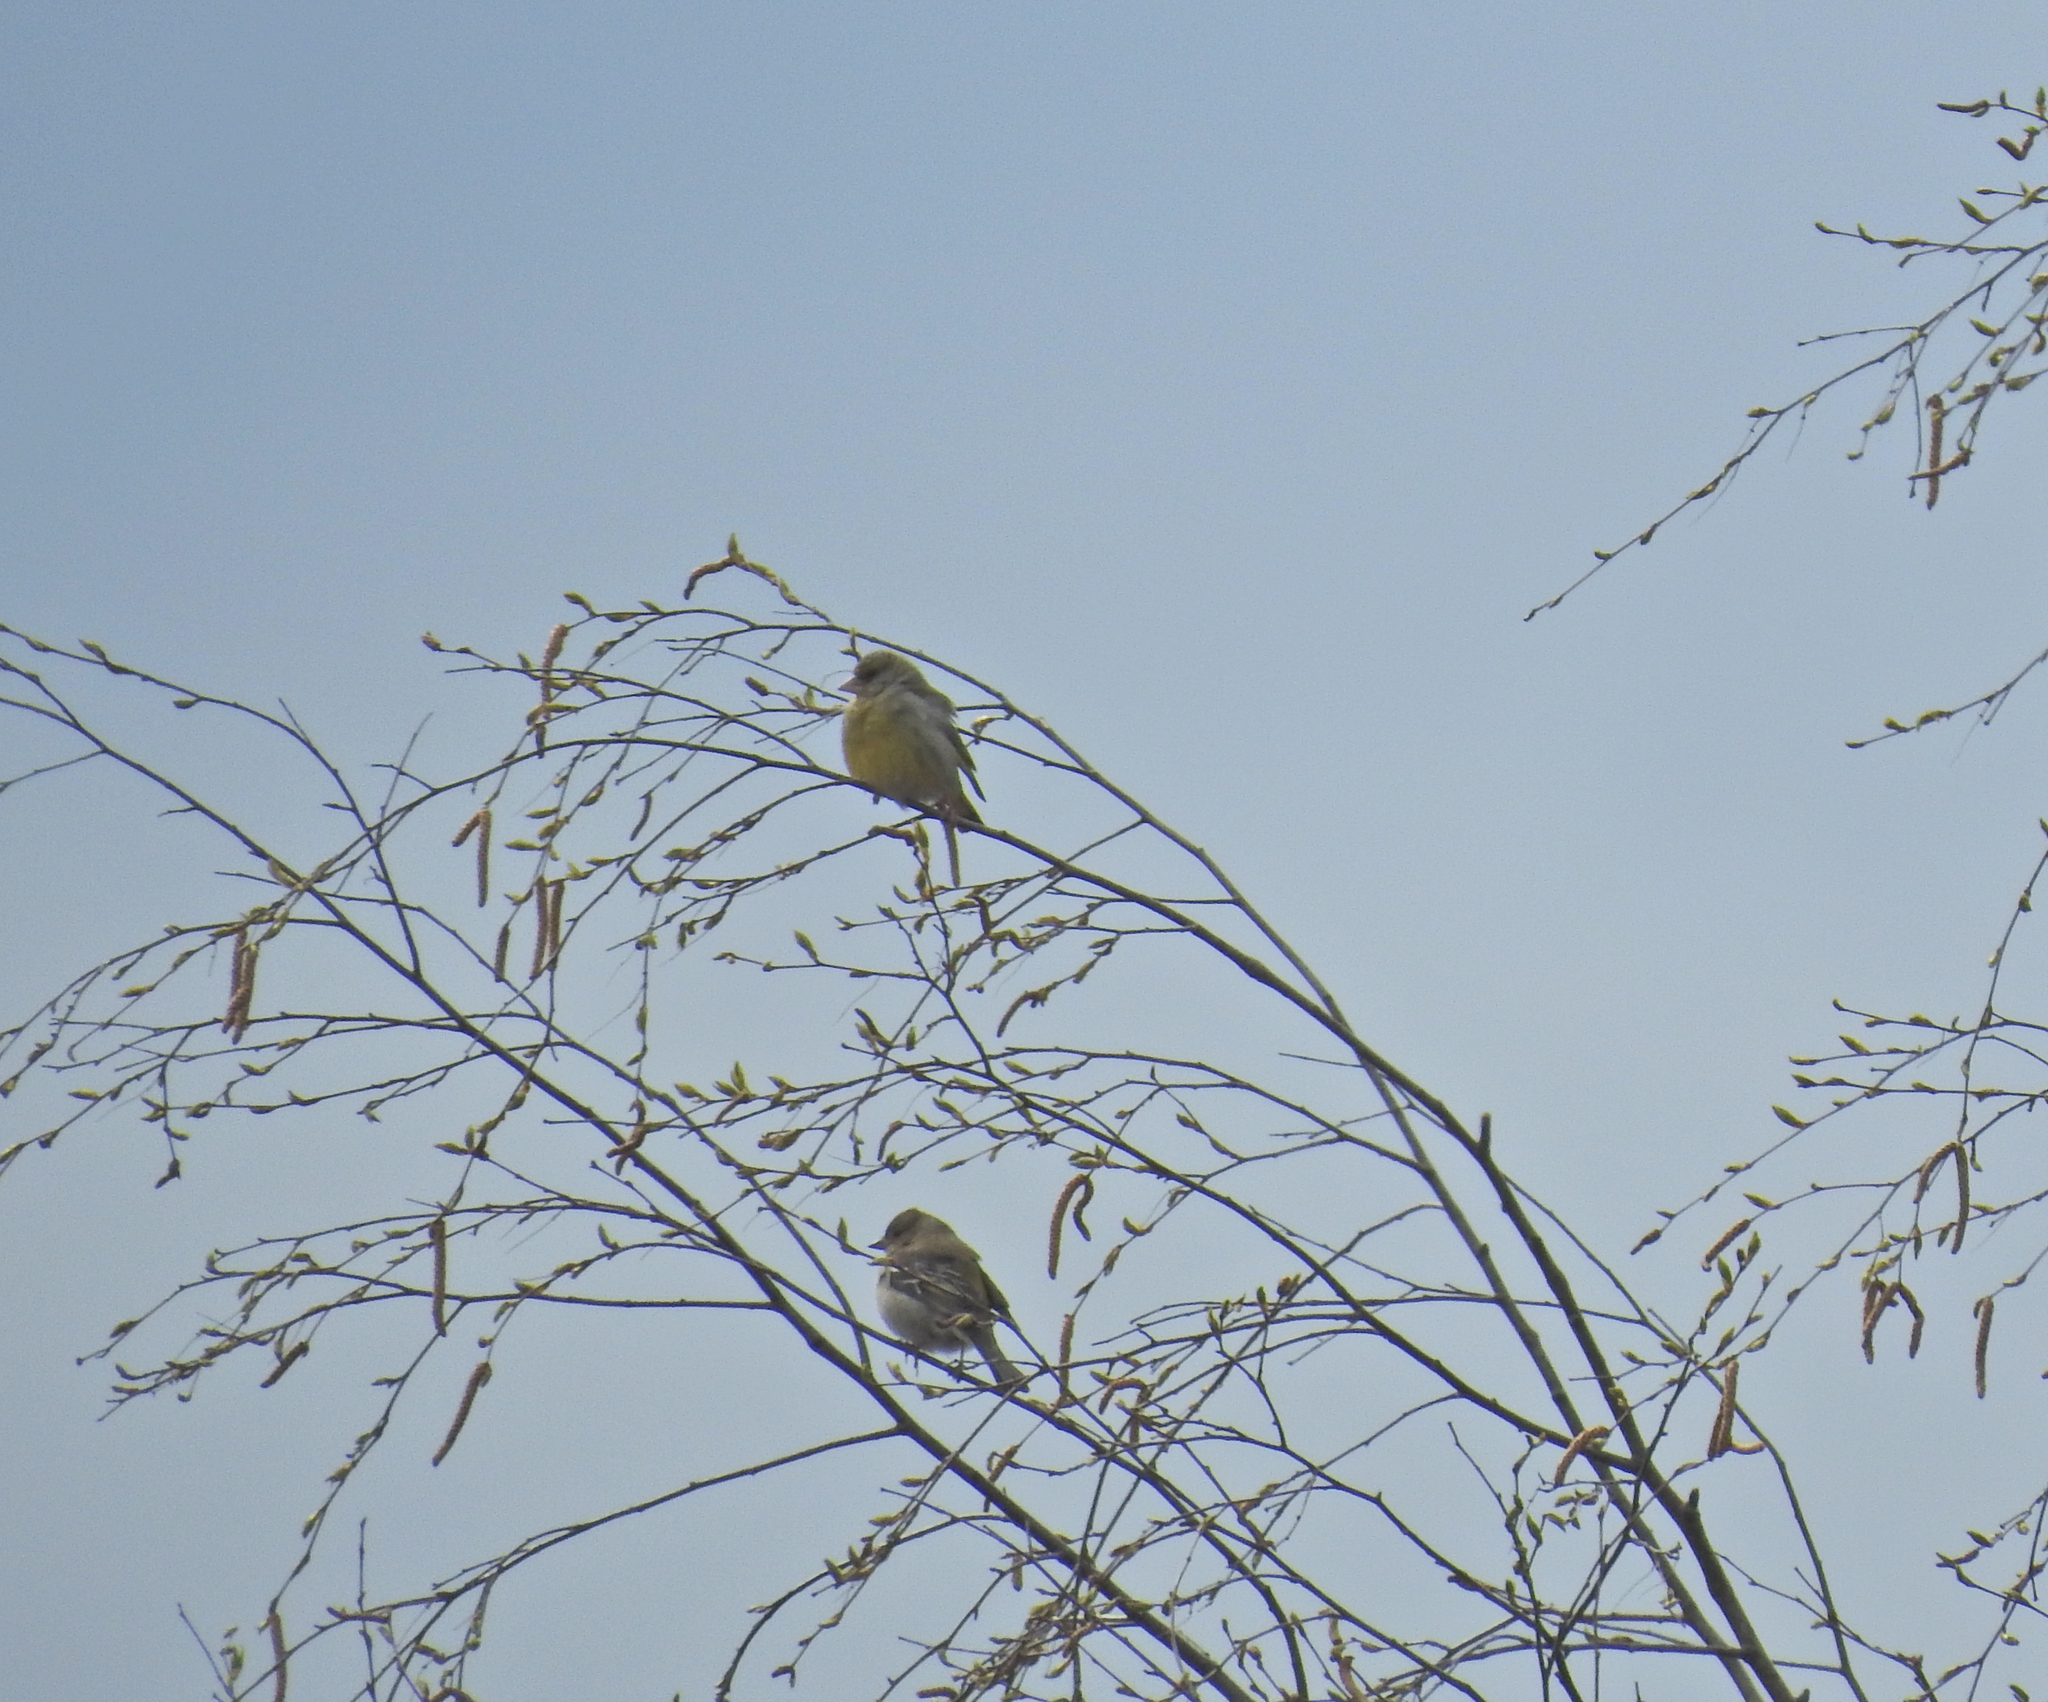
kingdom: Plantae
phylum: Tracheophyta
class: Liliopsida
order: Poales
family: Poaceae
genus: Chloris
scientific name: Chloris chloris
